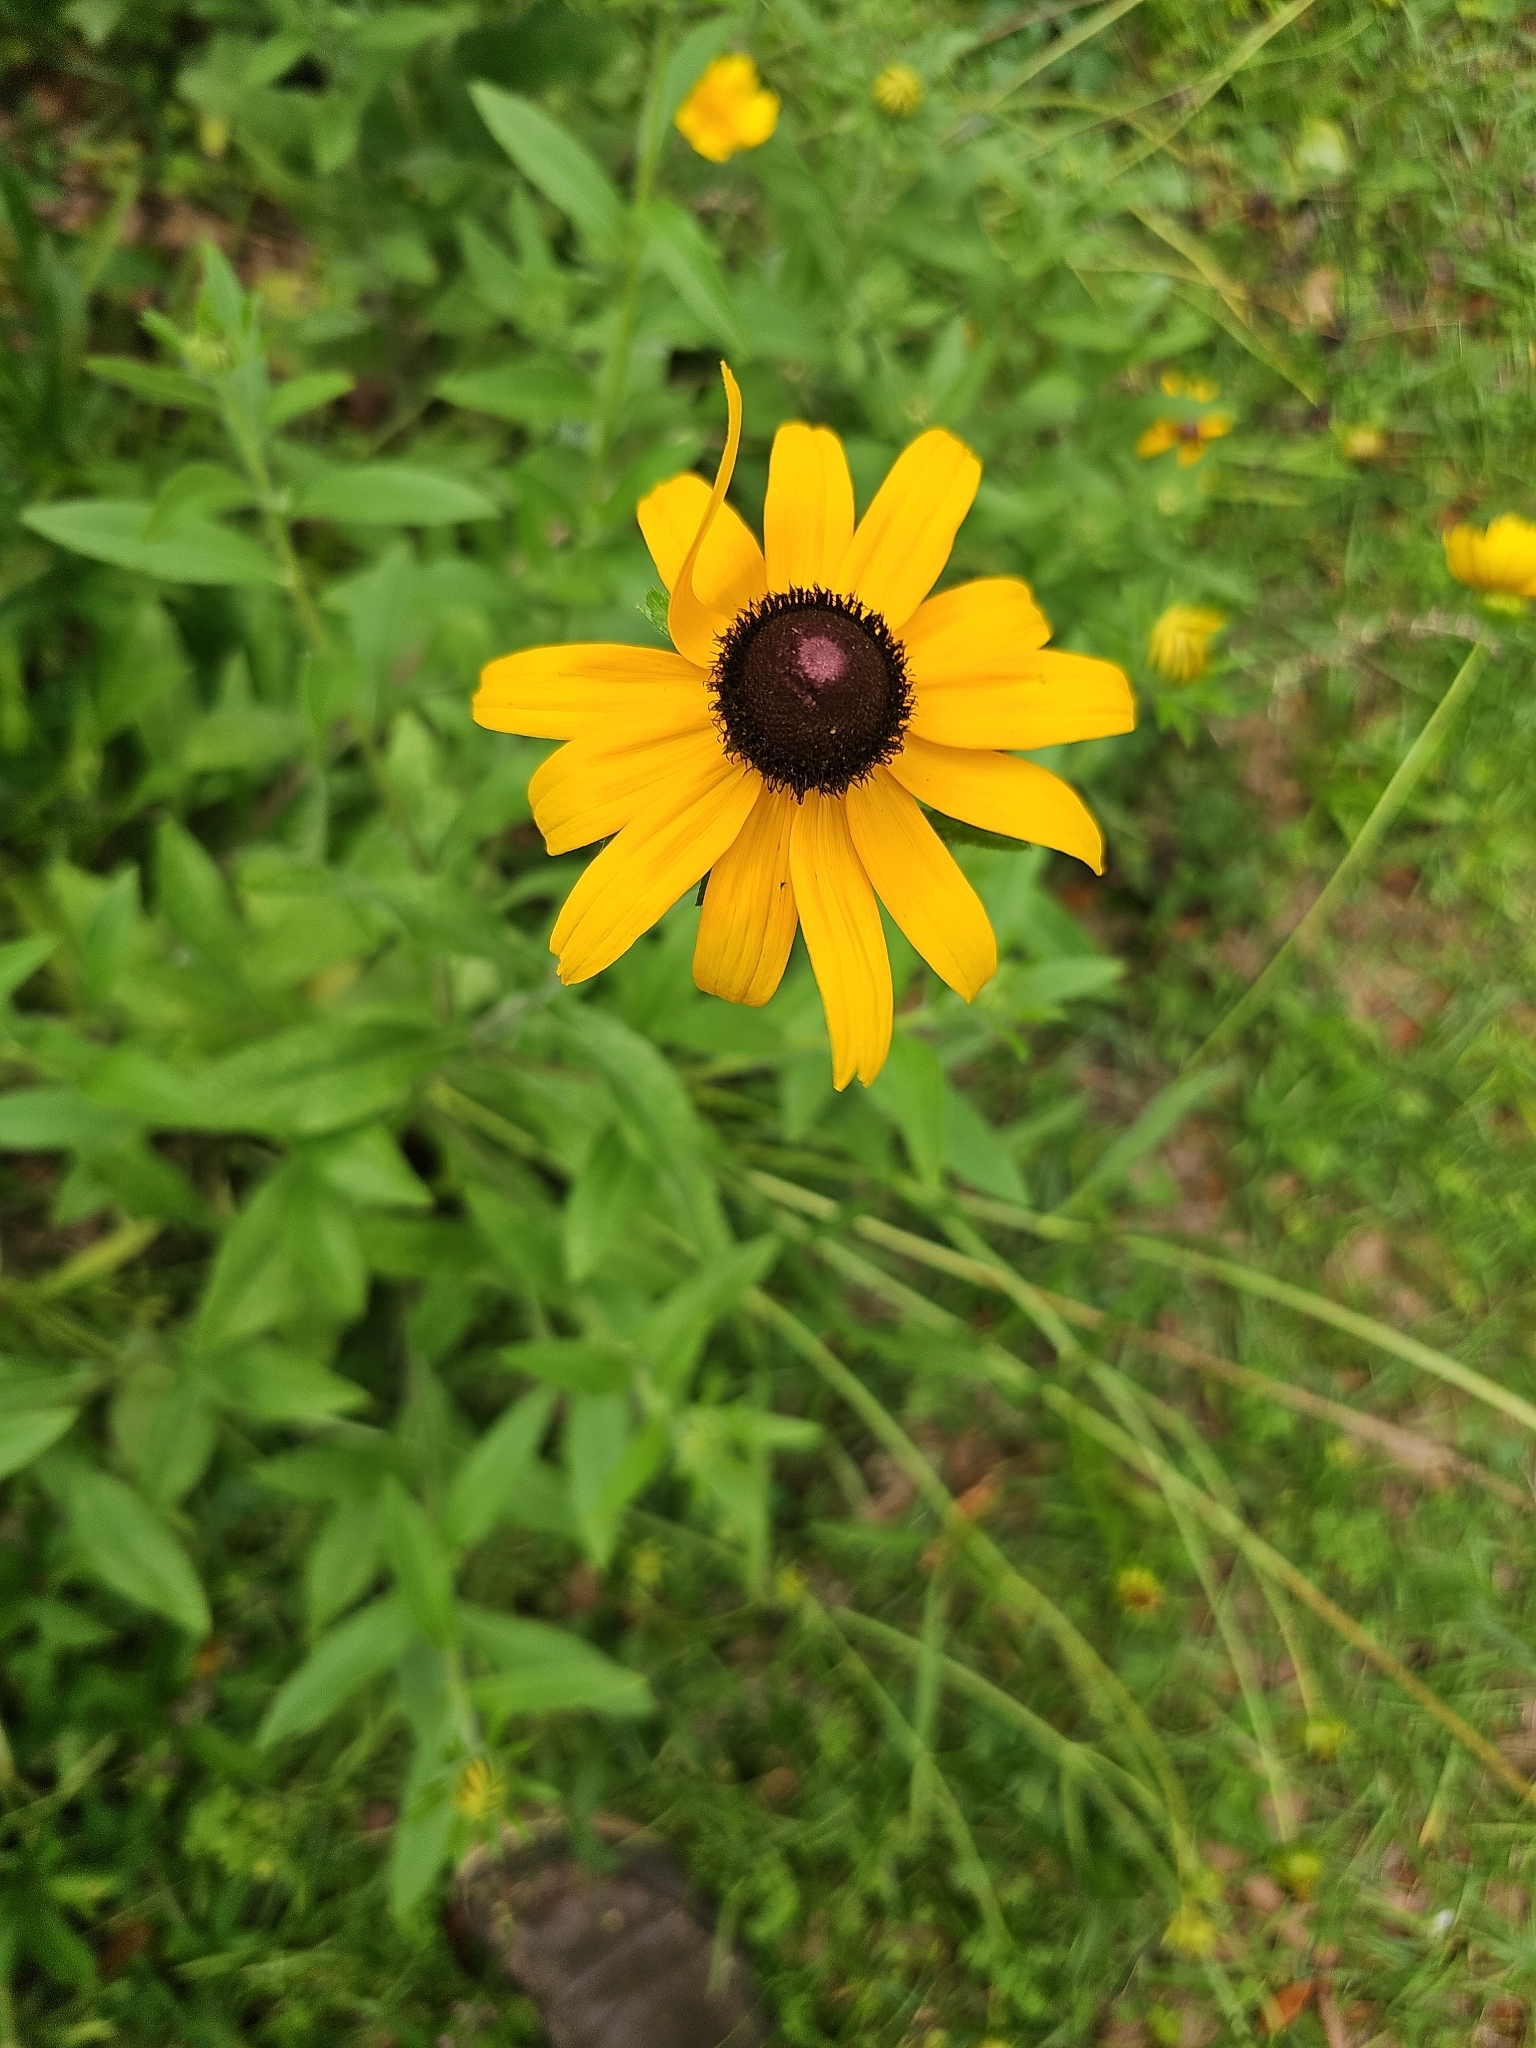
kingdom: Plantae
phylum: Tracheophyta
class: Magnoliopsida
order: Asterales
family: Asteraceae
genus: Rudbeckia
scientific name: Rudbeckia hirta
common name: Black-eyed-susan
